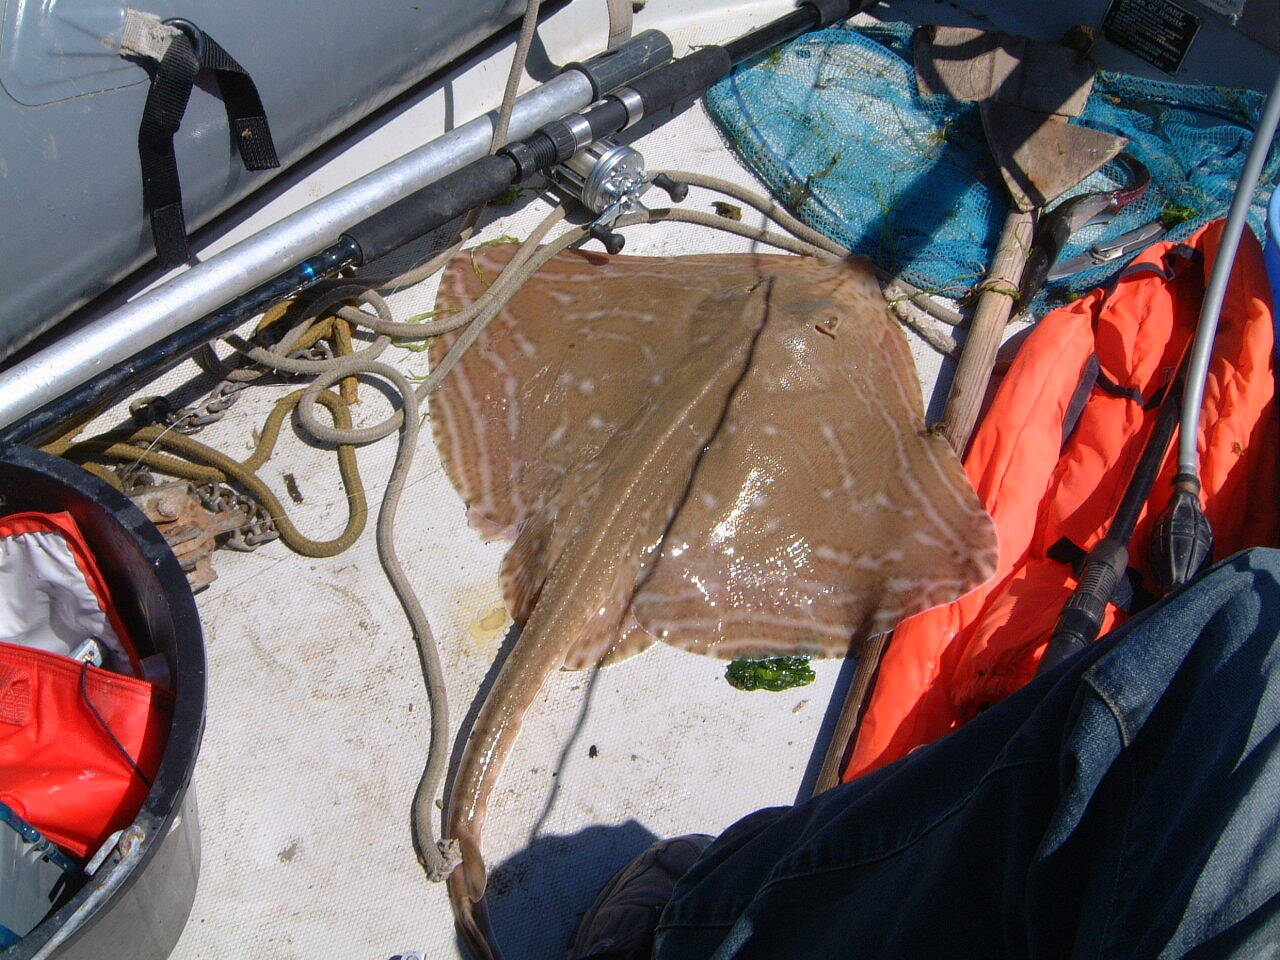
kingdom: Animalia
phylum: Chordata
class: Elasmobranchii
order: Rajiformes
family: Rajidae
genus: Raja
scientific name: Raja microocellata
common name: Painted ray
